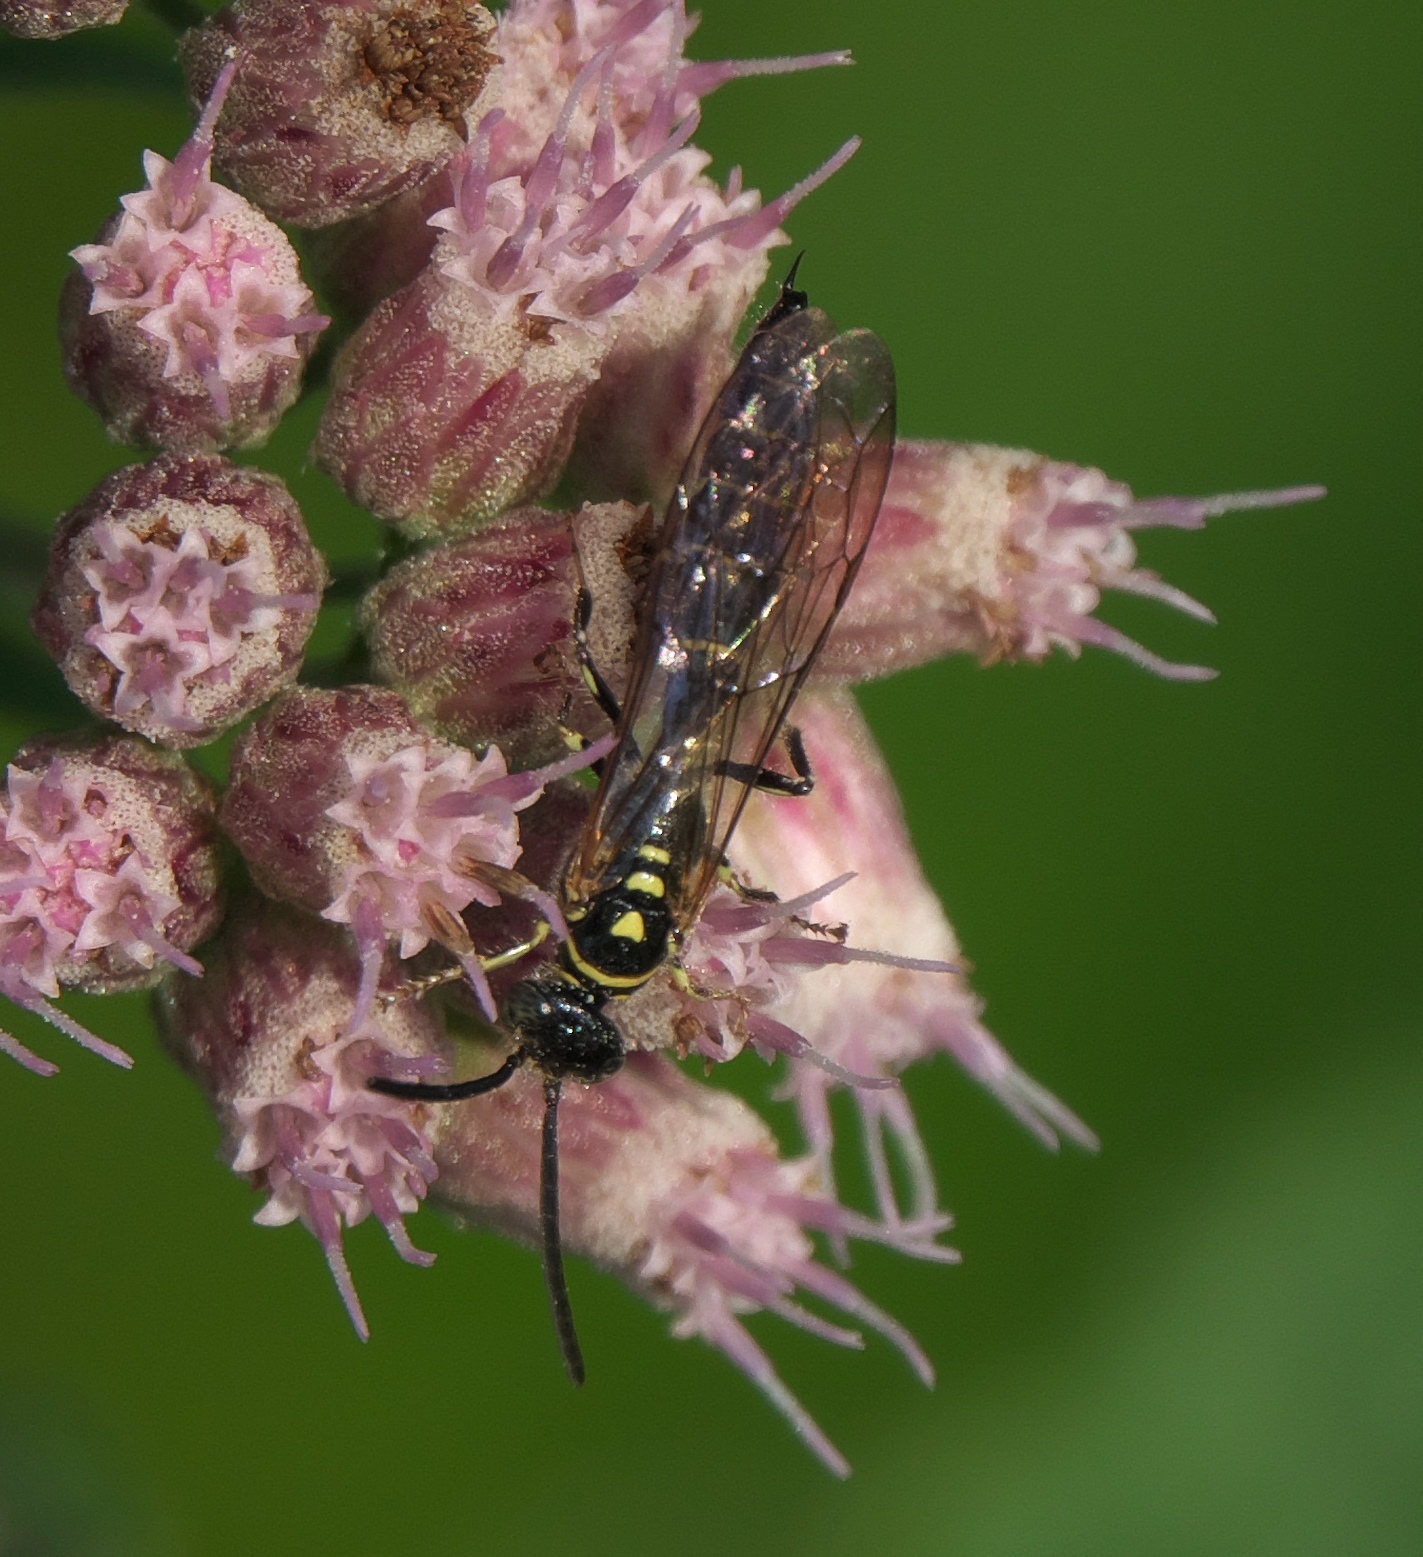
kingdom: Animalia
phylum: Arthropoda
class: Insecta
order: Hymenoptera
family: Tiphiidae
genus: Myzinum
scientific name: Myzinum
